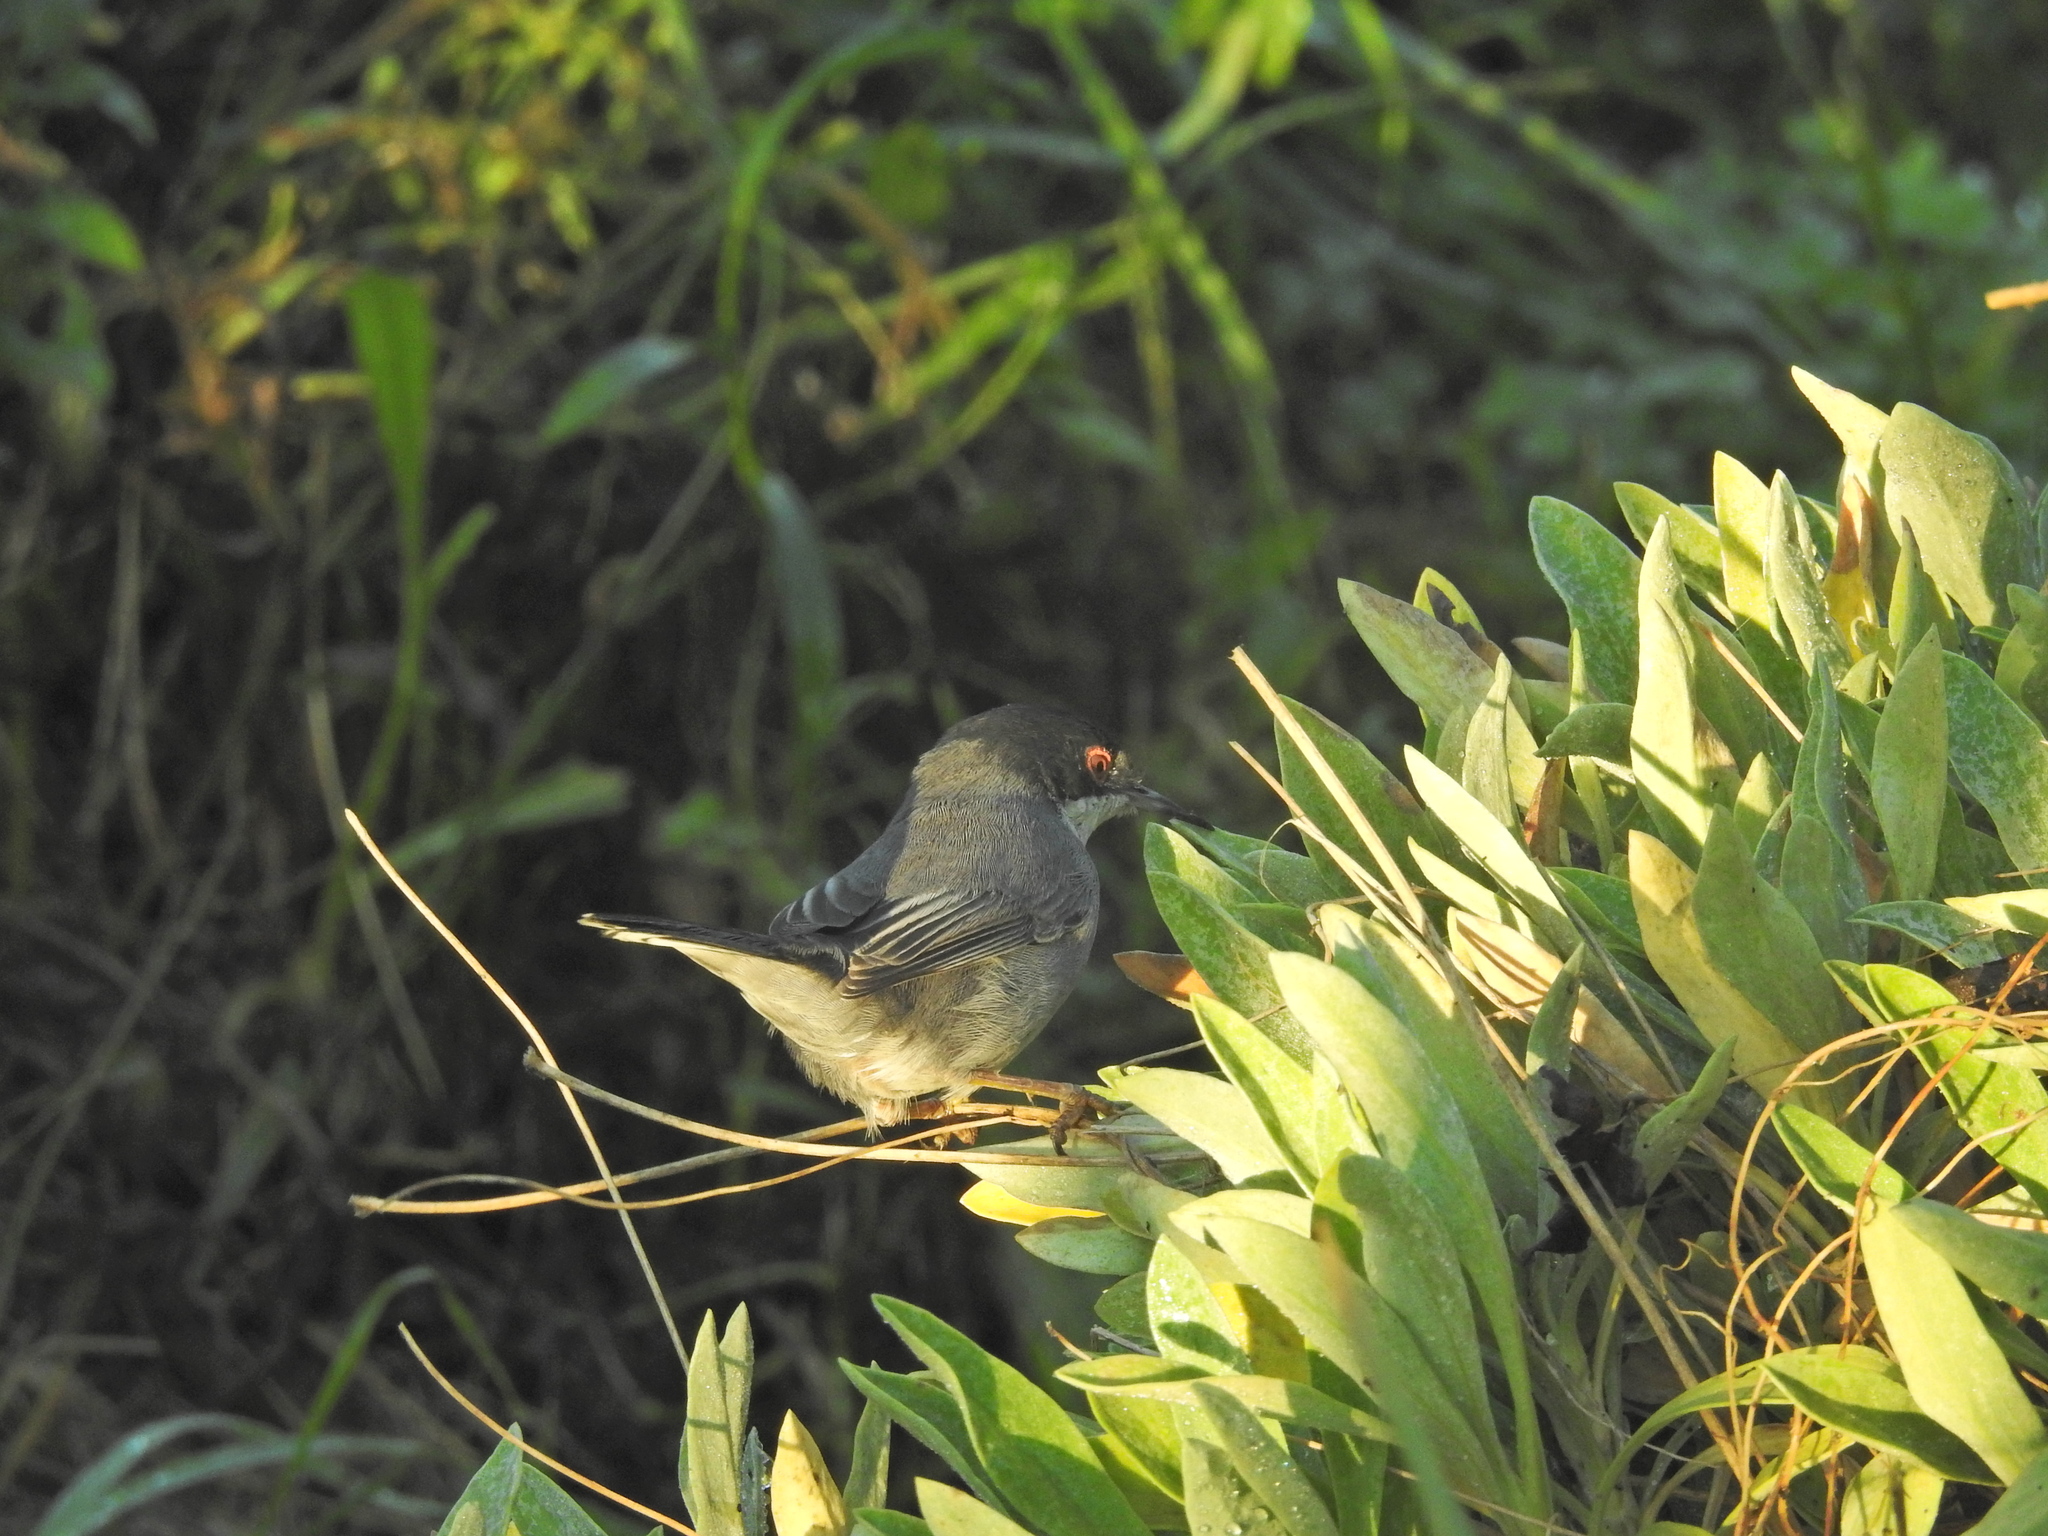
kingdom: Animalia
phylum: Chordata
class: Aves
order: Passeriformes
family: Sylviidae
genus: Curruca
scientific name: Curruca melanocephala
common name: Sardinian warbler
